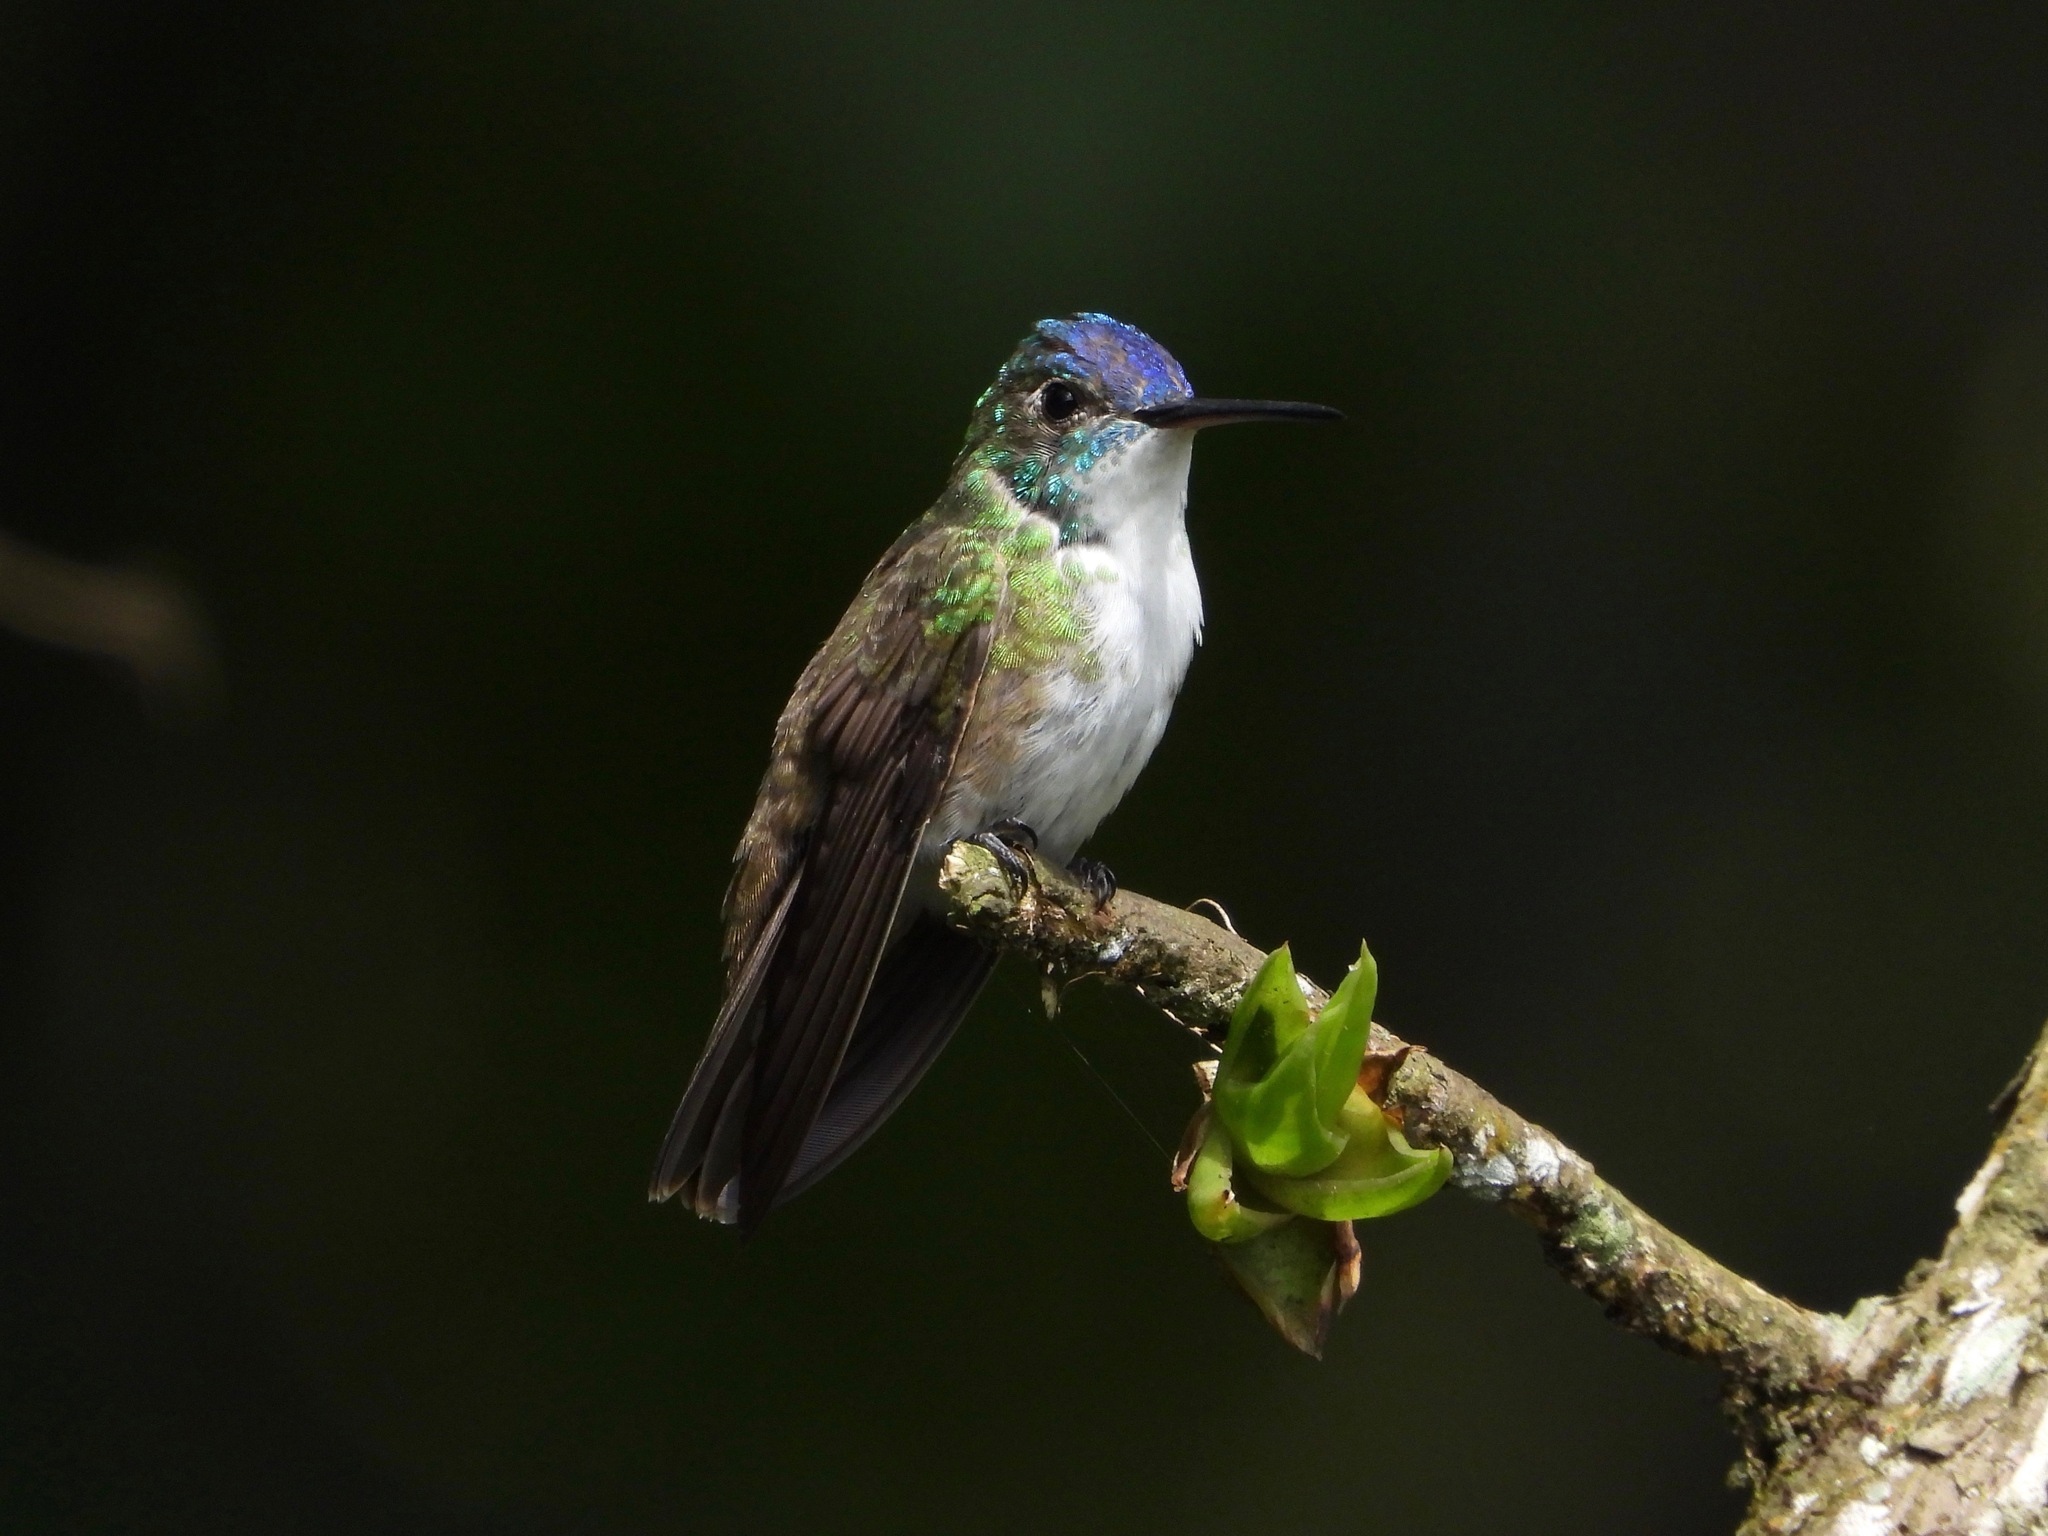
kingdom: Animalia
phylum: Chordata
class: Aves
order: Apodiformes
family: Trochilidae
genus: Saucerottia
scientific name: Saucerottia cyanocephala
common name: Azure-crowned hummingbird
